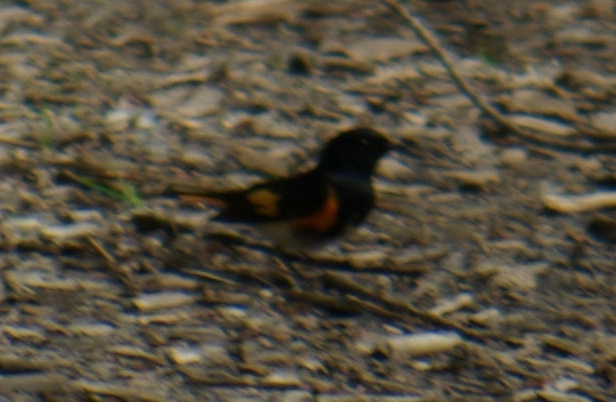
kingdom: Animalia
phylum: Chordata
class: Aves
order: Passeriformes
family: Parulidae
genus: Setophaga
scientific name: Setophaga ruticilla
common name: American redstart
